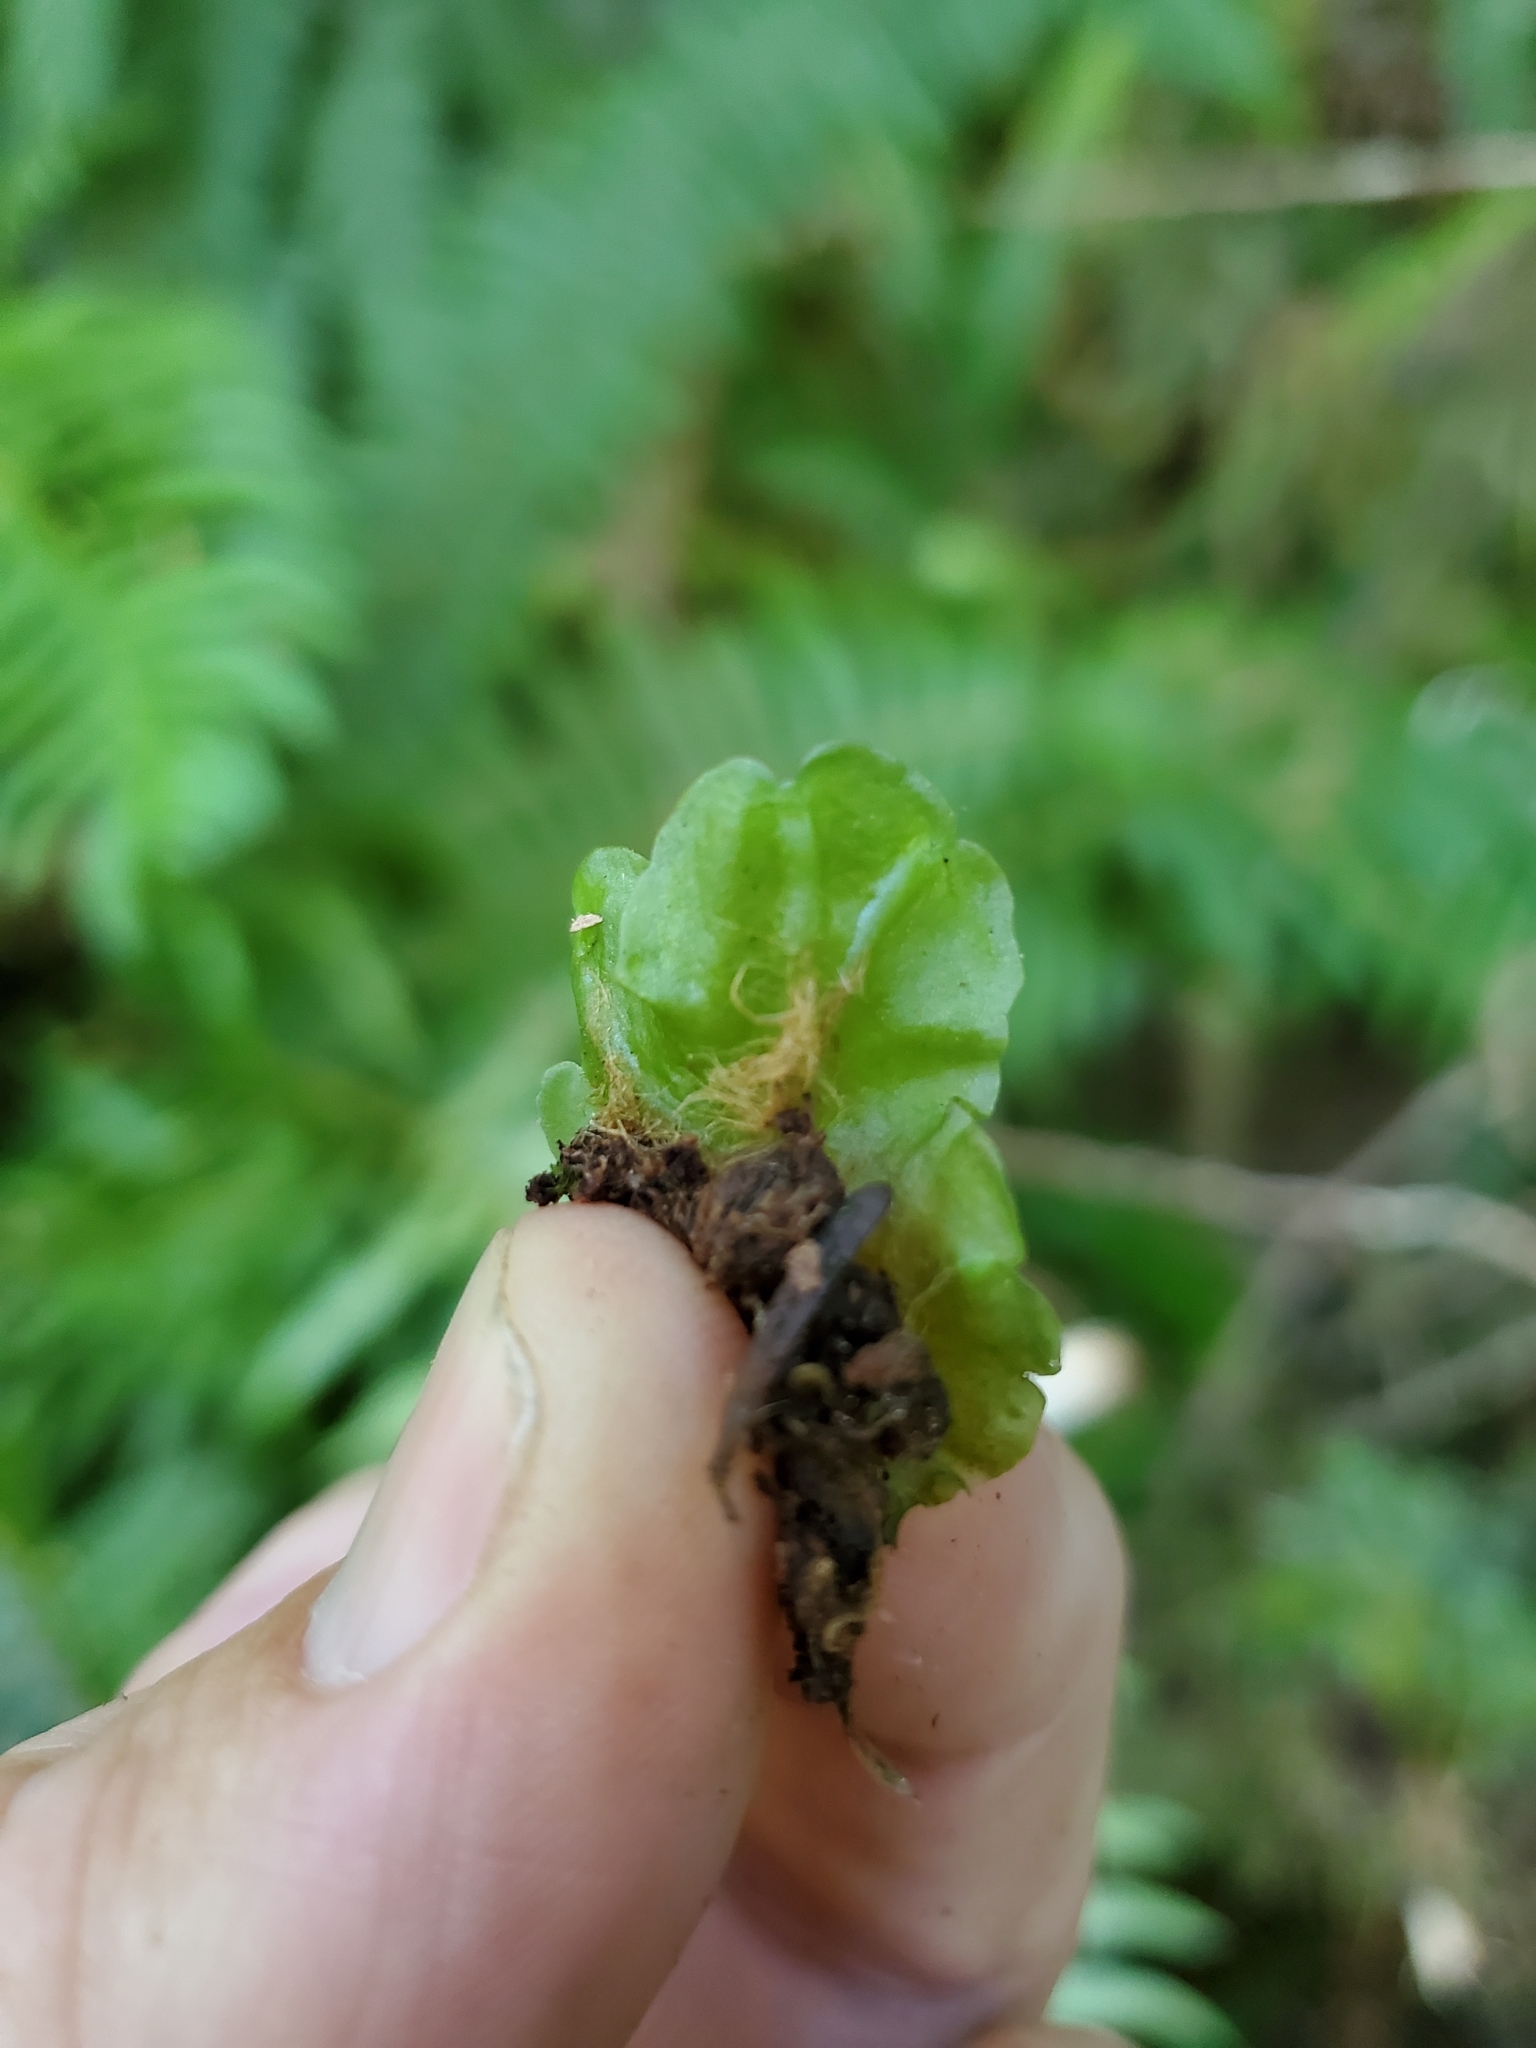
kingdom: Plantae
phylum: Marchantiophyta
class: Jungermanniopsida
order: Pelliales
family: Pelliaceae
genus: Pellia
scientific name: Pellia neesiana
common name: Nees  pellia
